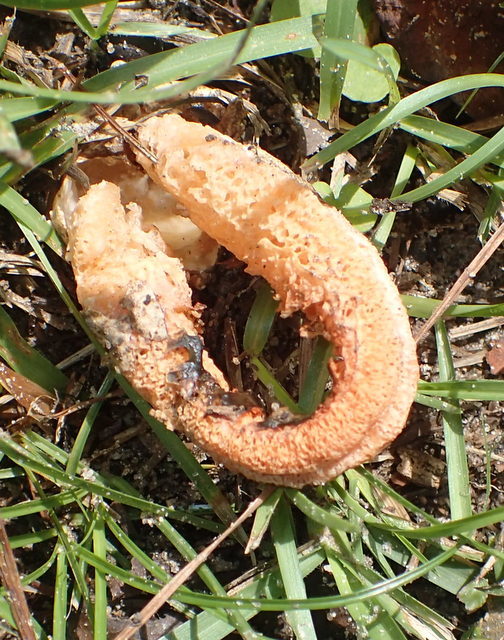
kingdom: Fungi
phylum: Basidiomycota
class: Agaricomycetes
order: Phallales
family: Phallaceae
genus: Clathrus
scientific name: Clathrus columnatus
